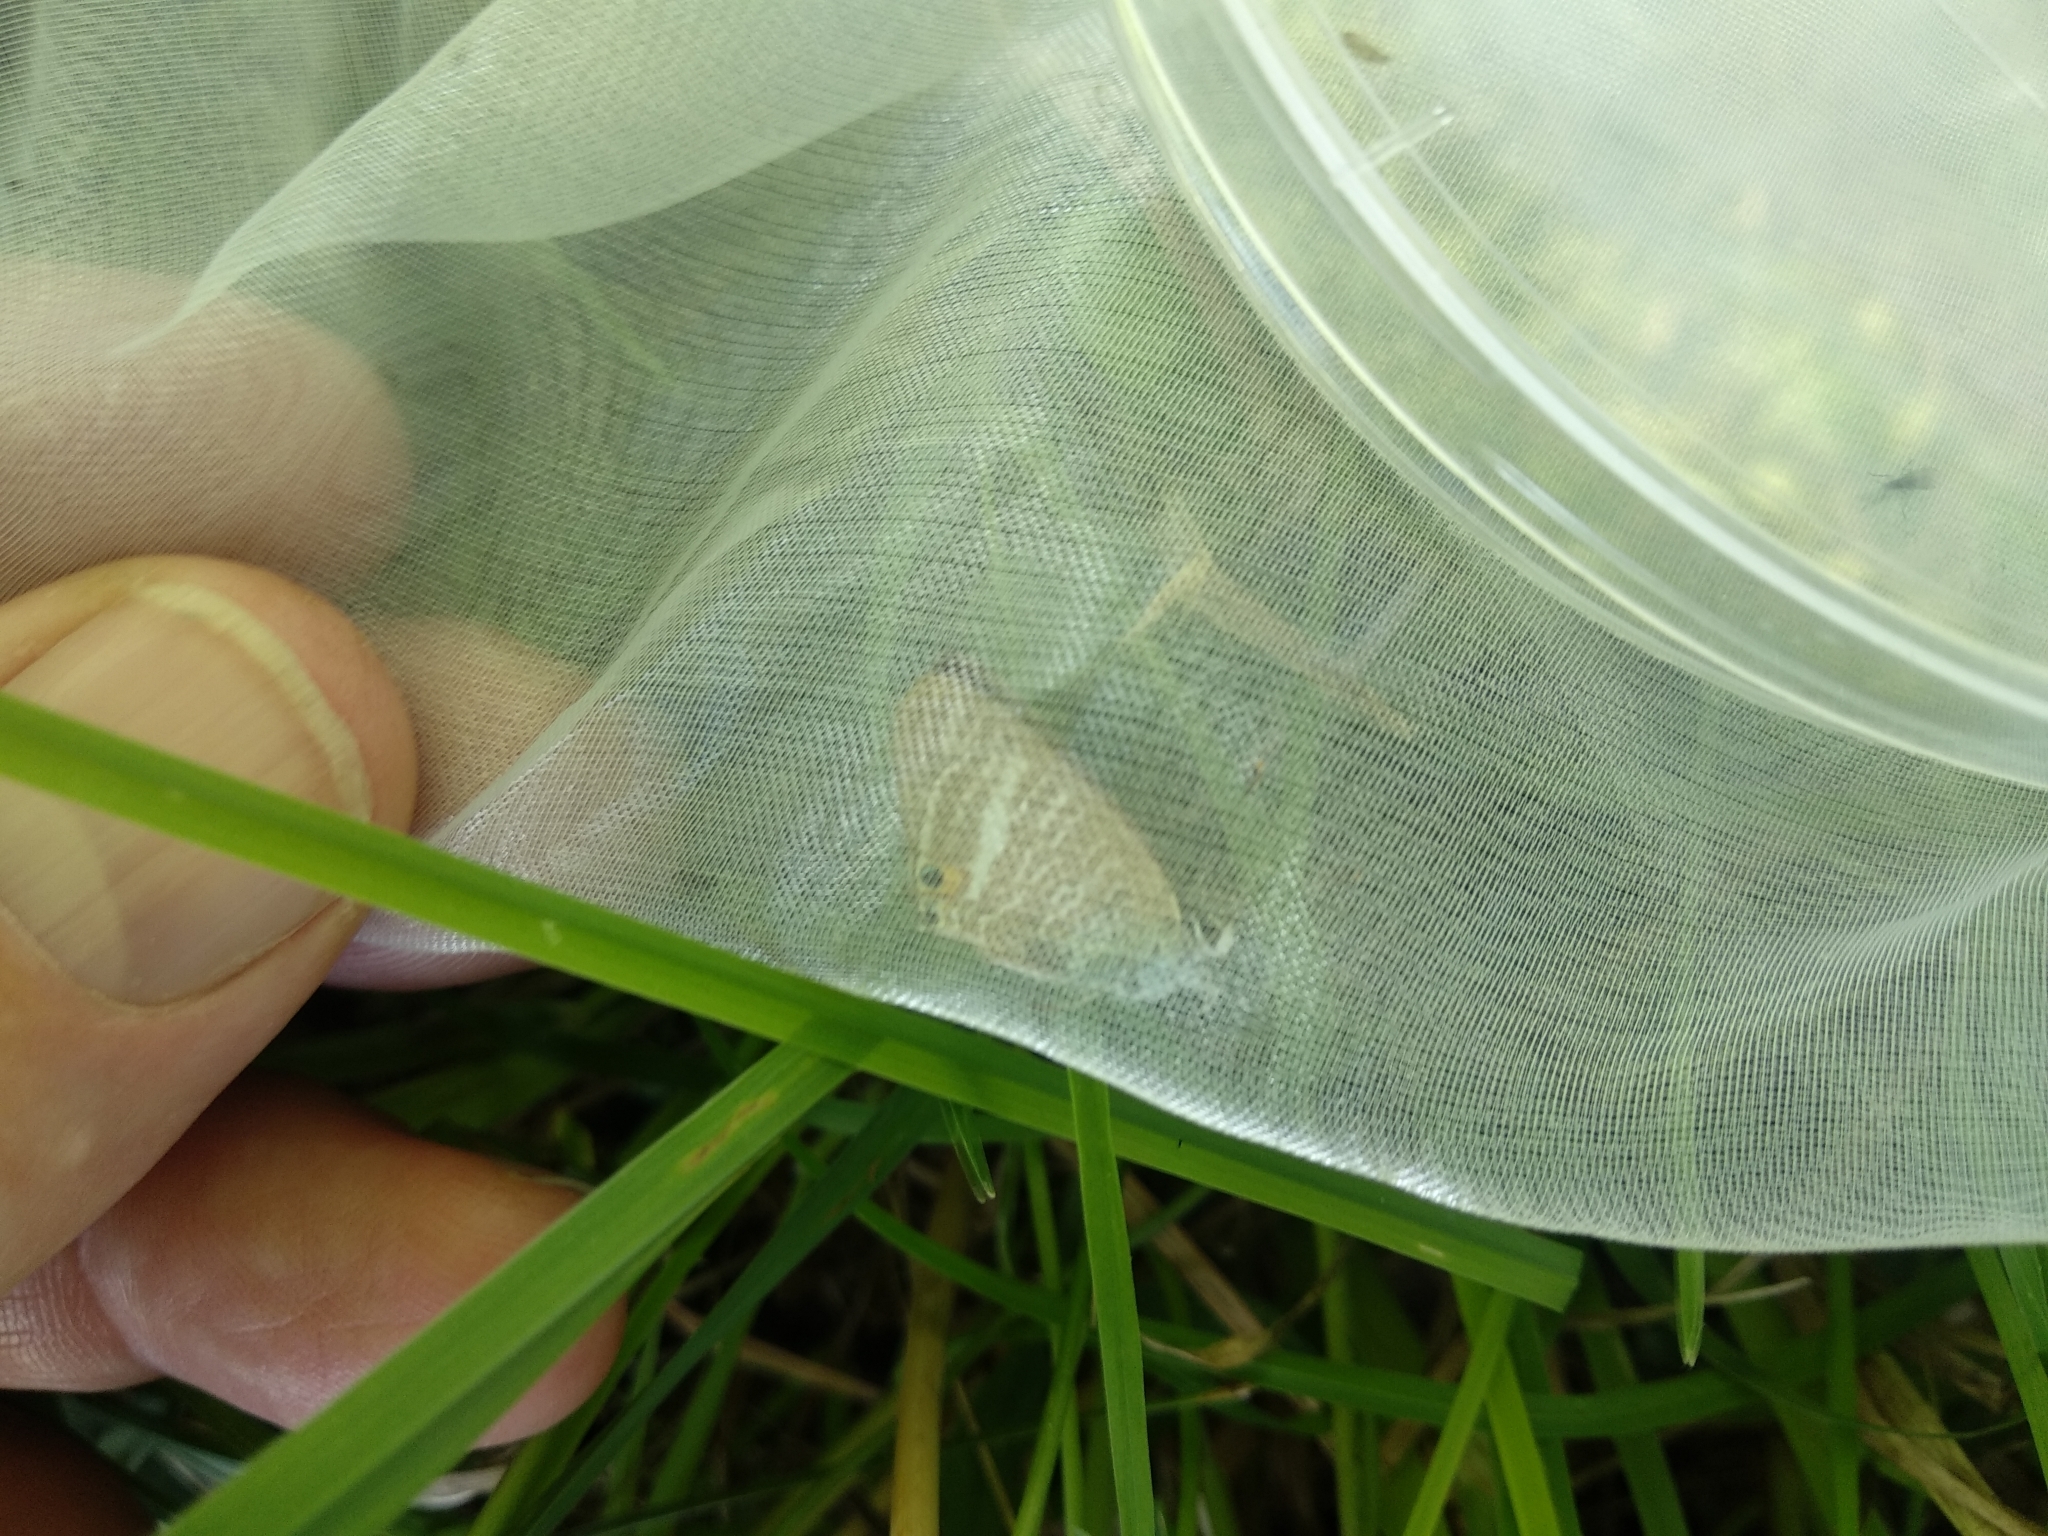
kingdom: Animalia
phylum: Arthropoda
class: Insecta
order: Lepidoptera
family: Lycaenidae
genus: Lampides
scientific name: Lampides boeticus
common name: Long-tailed blue
